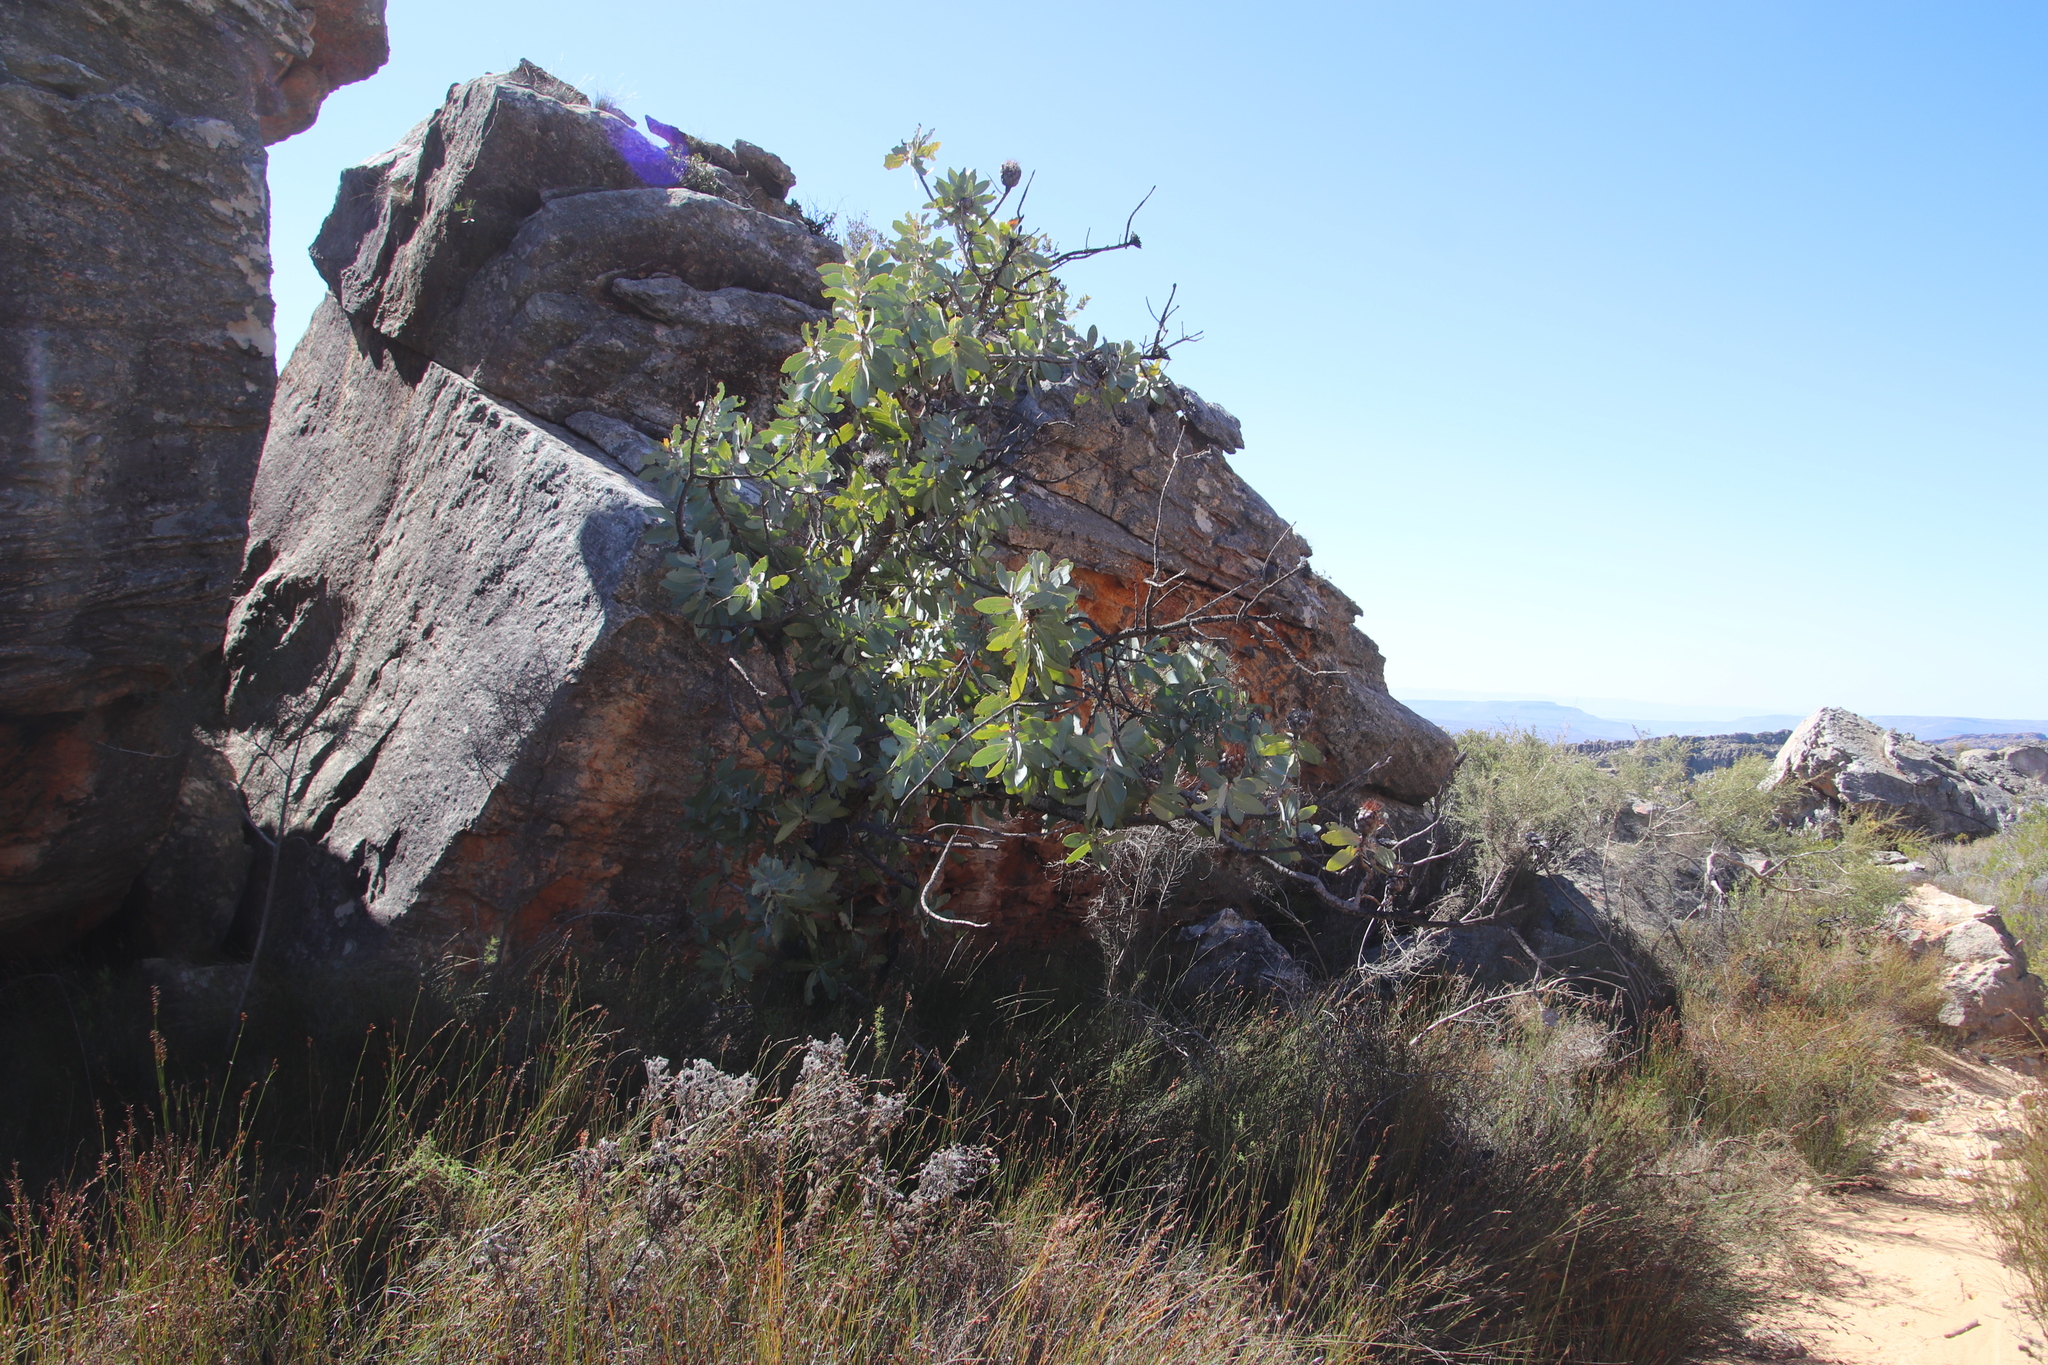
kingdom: Plantae
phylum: Tracheophyta
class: Magnoliopsida
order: Proteales
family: Proteaceae
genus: Protea
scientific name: Protea nitida
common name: Tree protea
